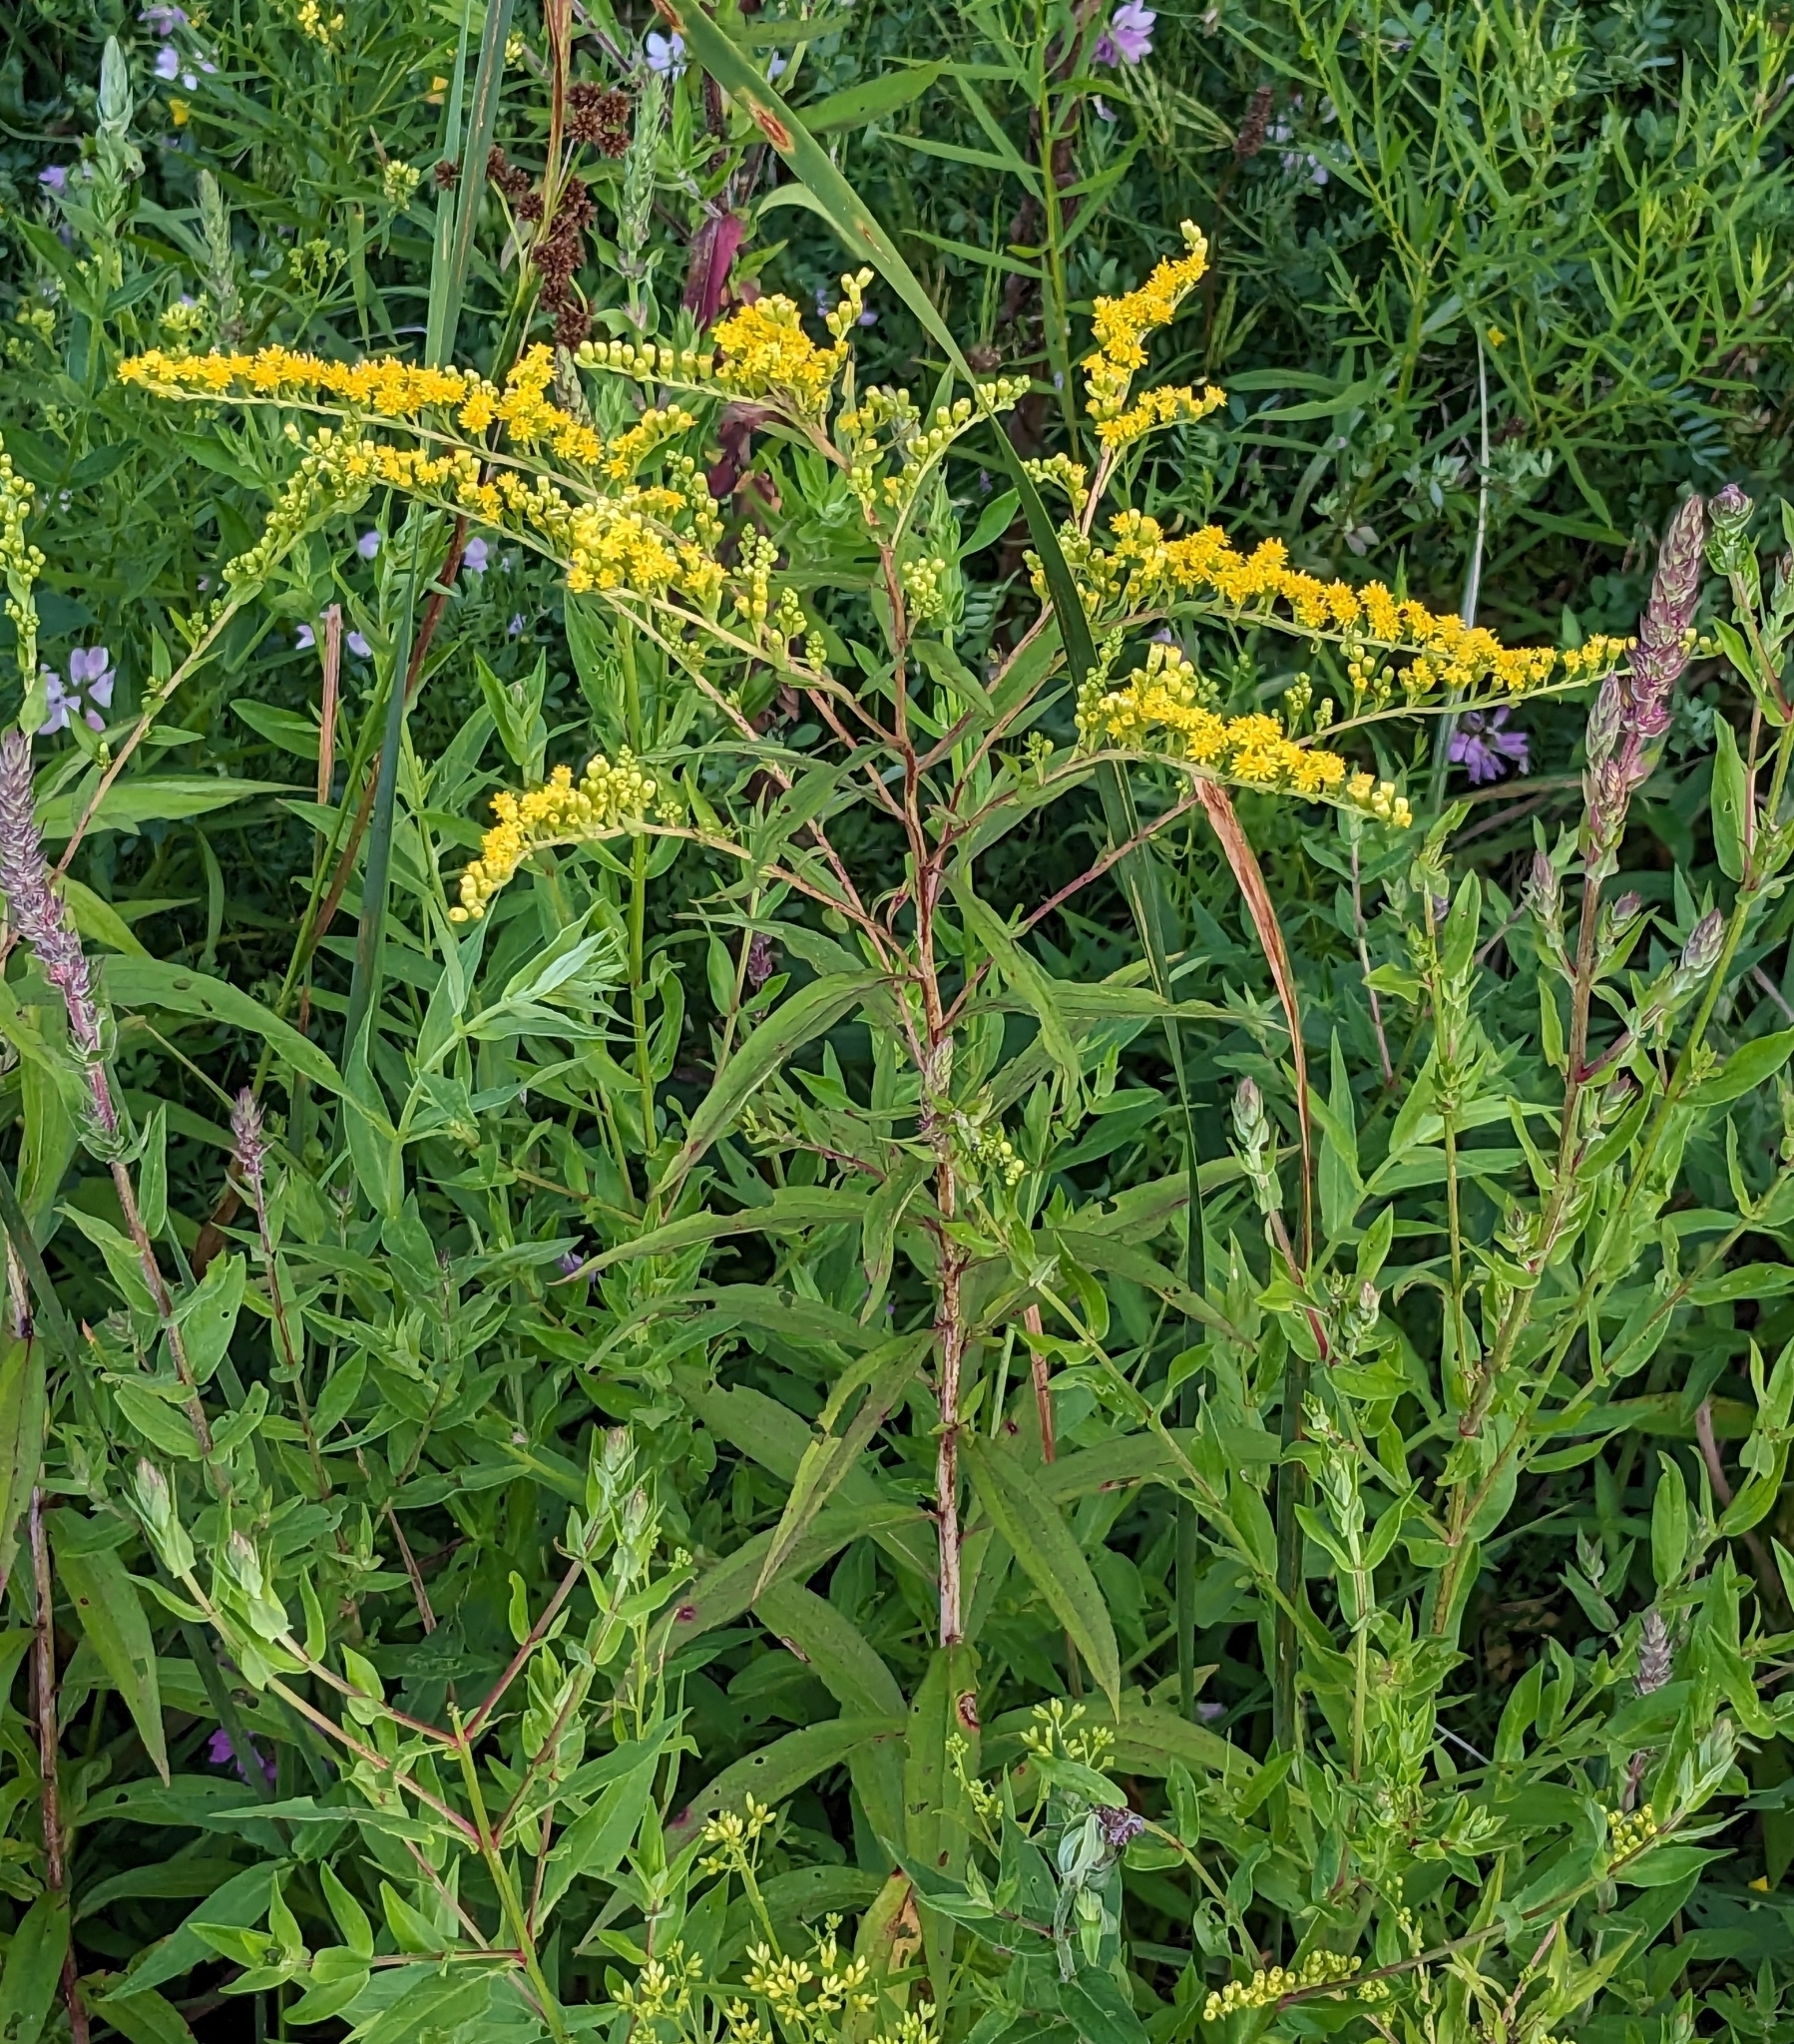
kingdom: Plantae
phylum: Tracheophyta
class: Magnoliopsida
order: Asterales
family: Asteraceae
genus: Solidago
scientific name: Solidago gigantea
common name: Giant goldenrod
